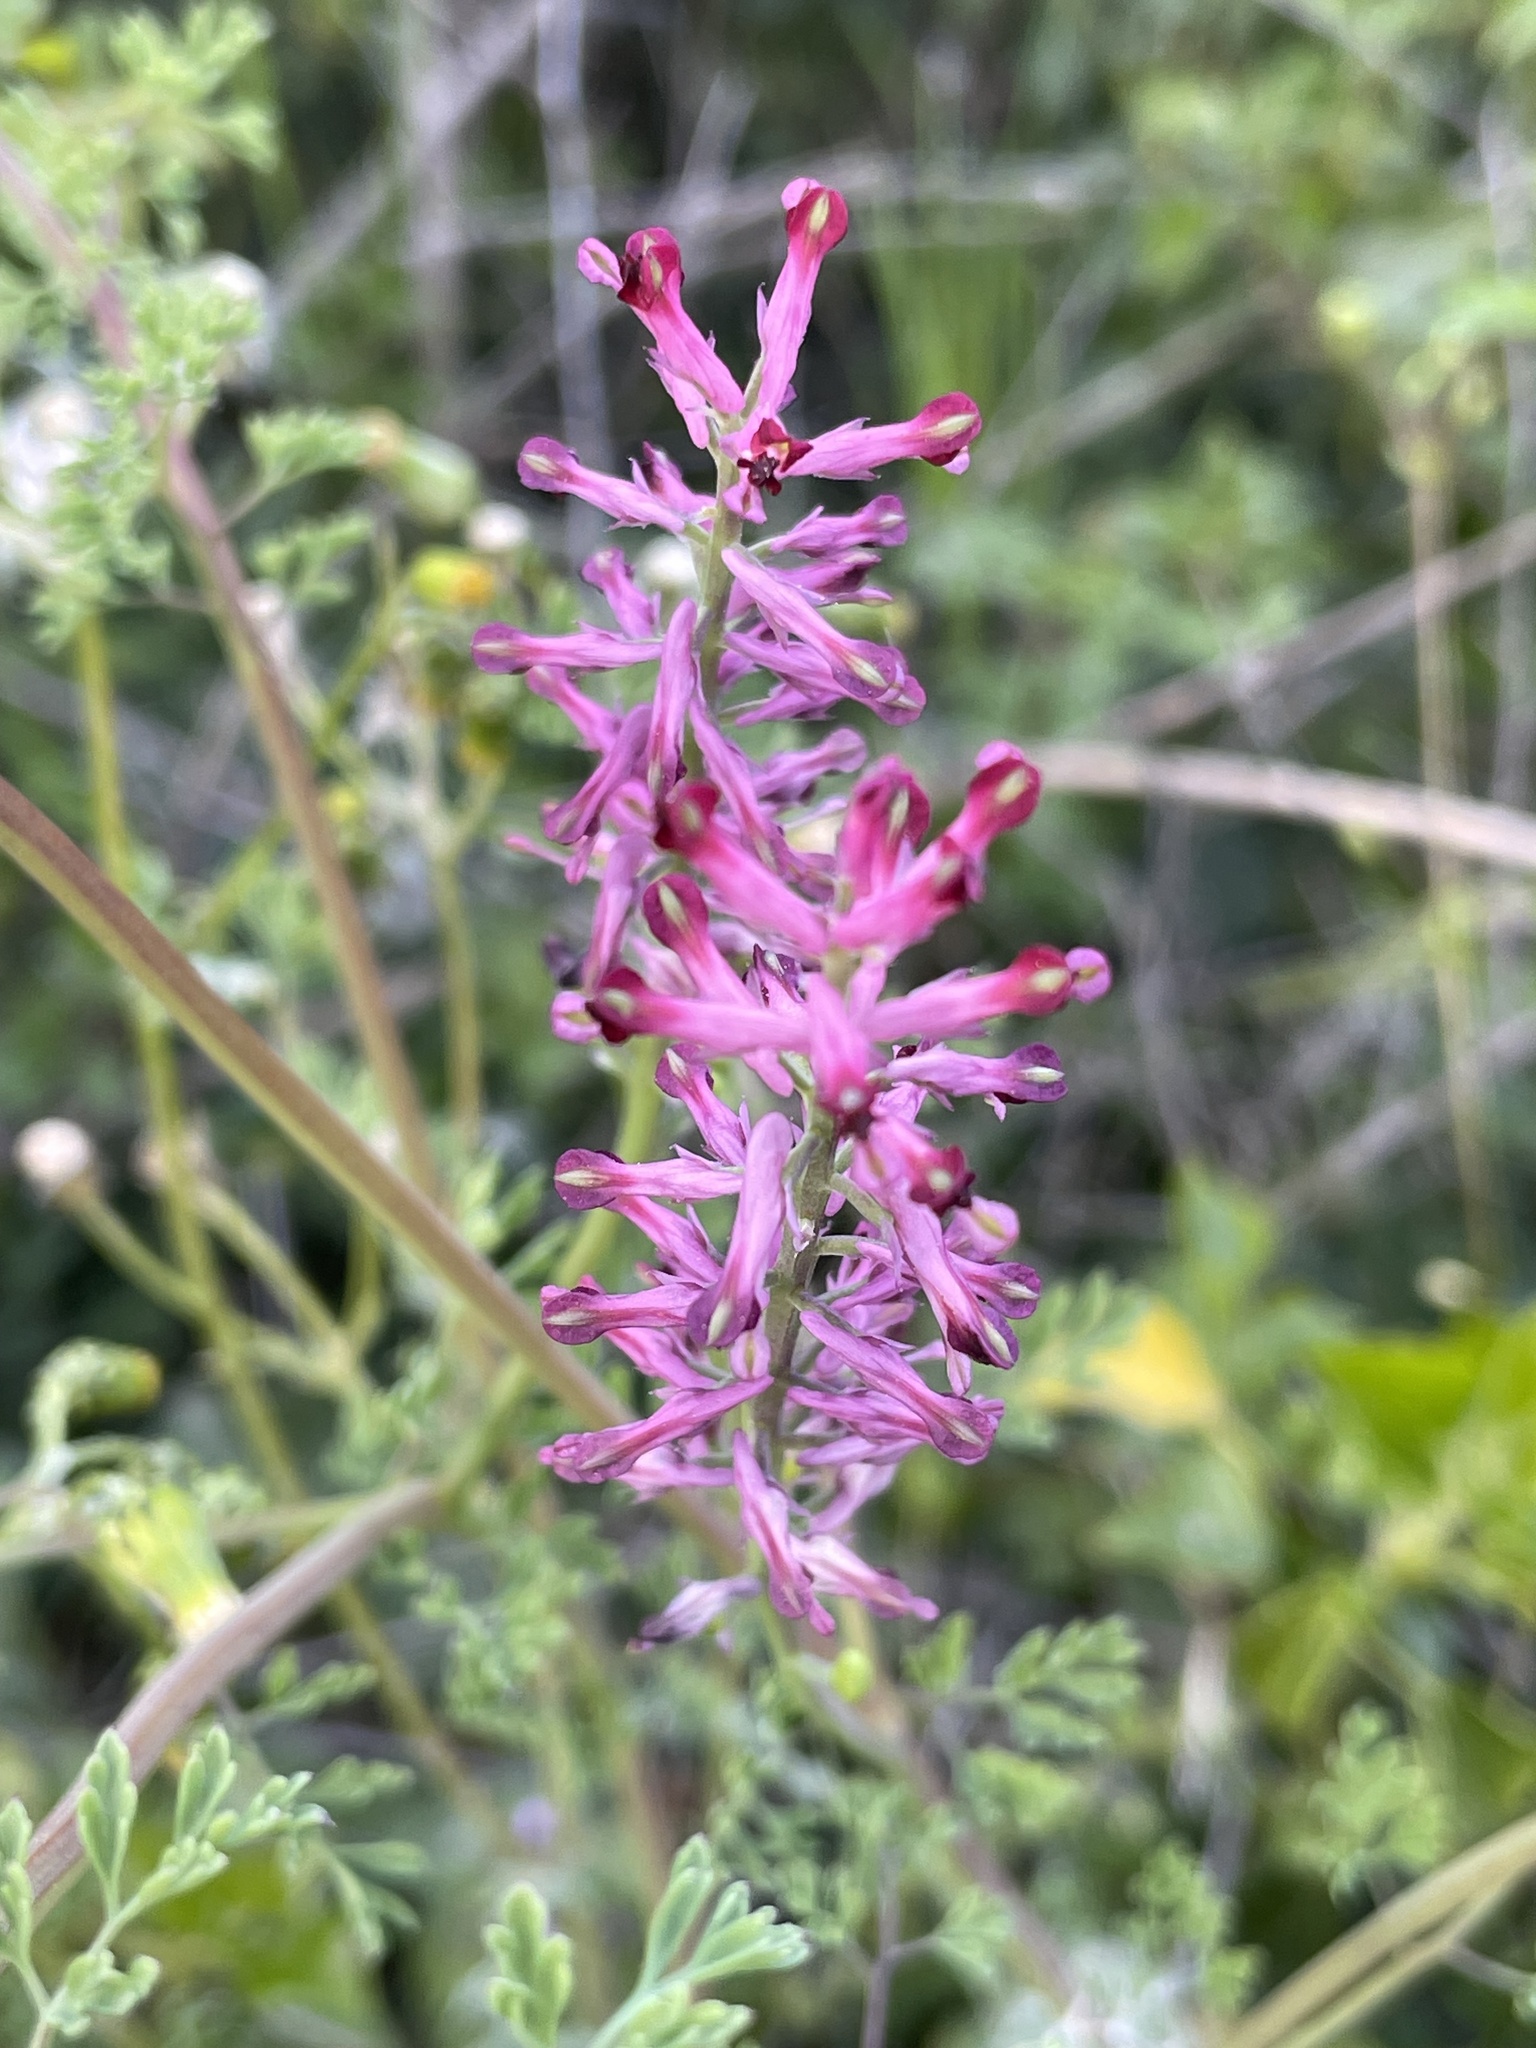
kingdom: Plantae
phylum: Tracheophyta
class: Magnoliopsida
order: Ranunculales
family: Papaveraceae
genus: Fumaria
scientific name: Fumaria officinalis
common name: Common fumitory
